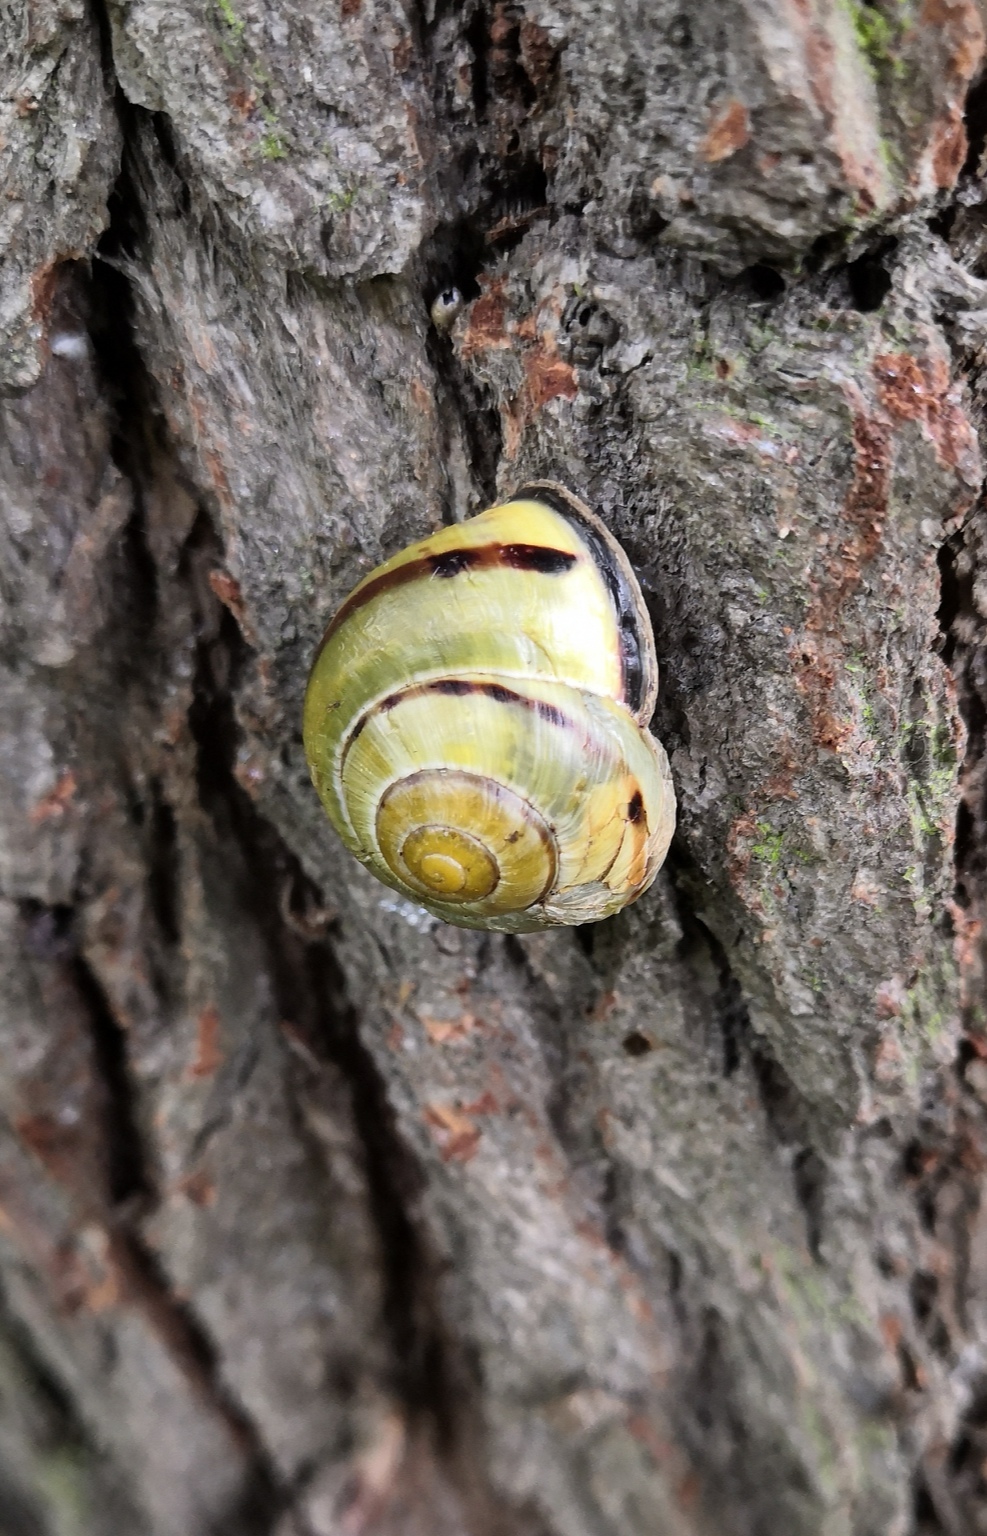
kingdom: Animalia
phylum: Mollusca
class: Gastropoda
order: Stylommatophora
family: Helicidae
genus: Cepaea
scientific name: Cepaea nemoralis
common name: Grovesnail
